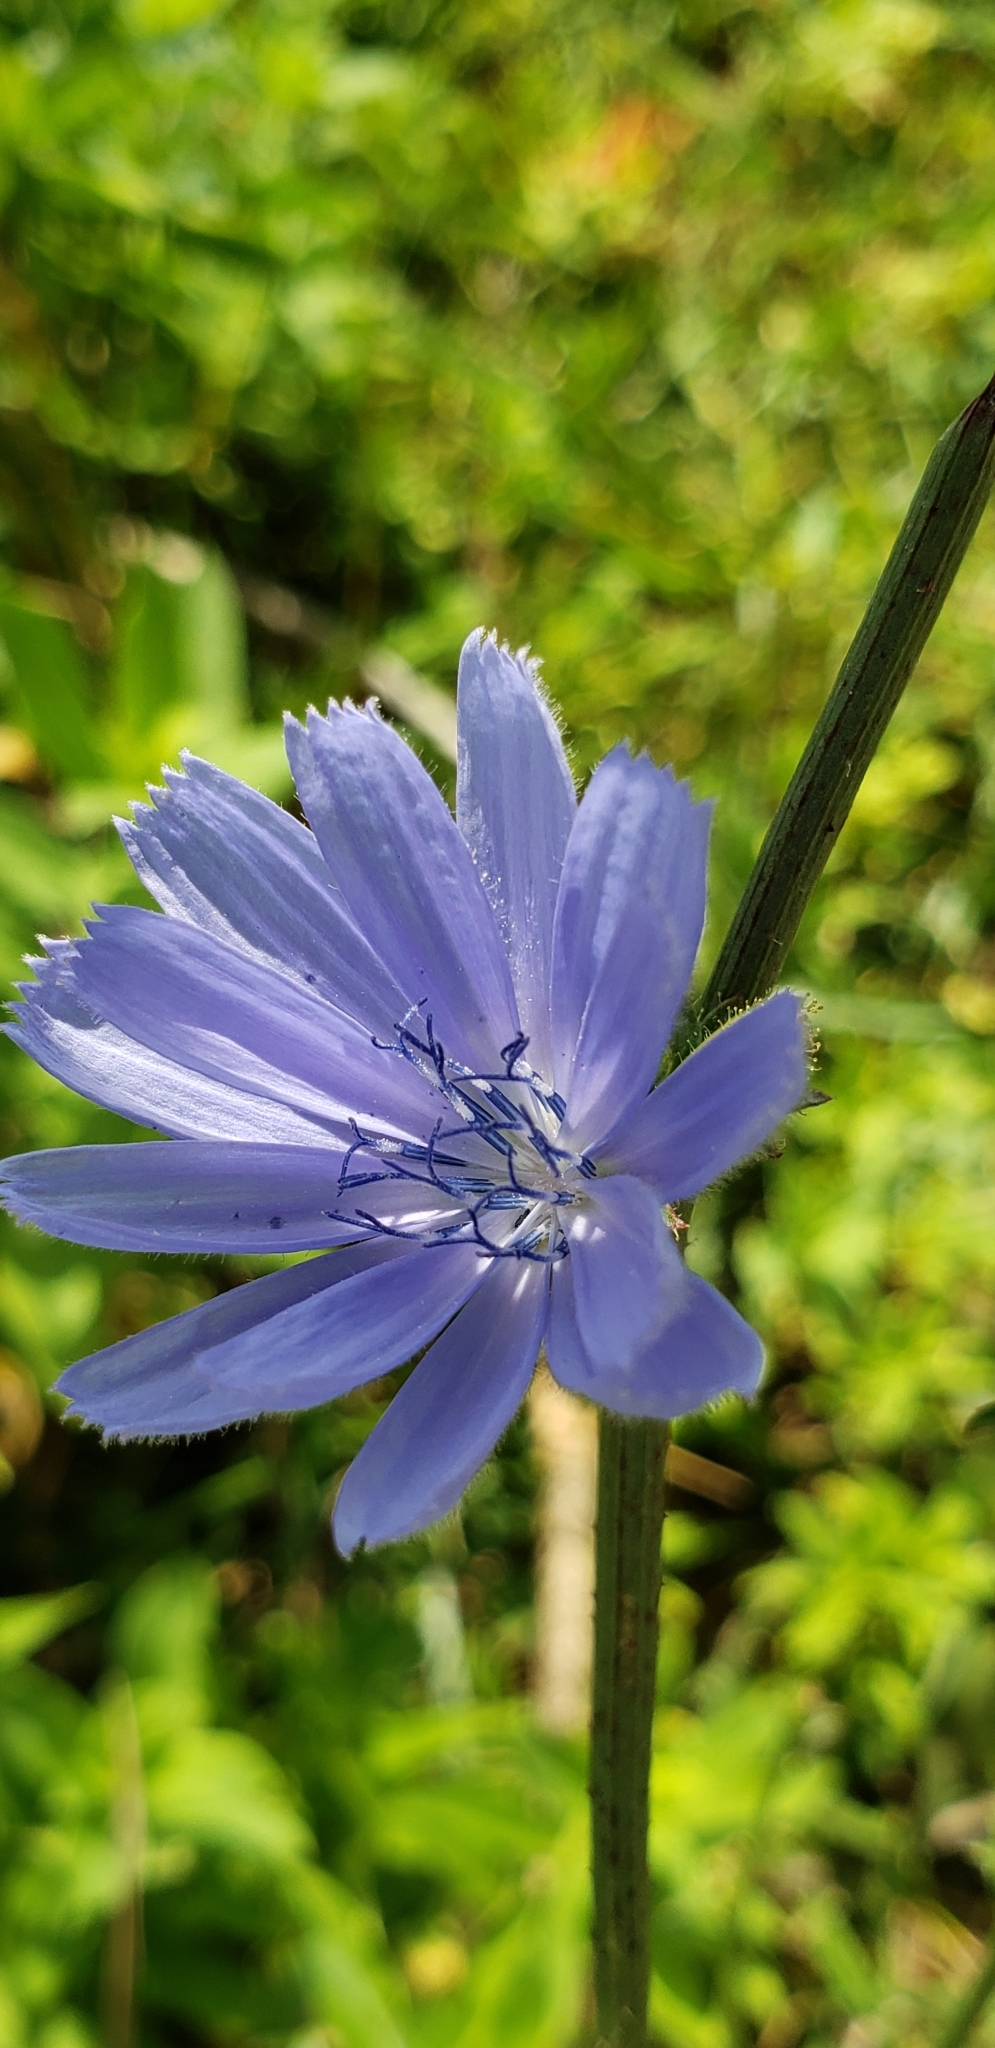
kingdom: Plantae
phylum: Tracheophyta
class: Magnoliopsida
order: Asterales
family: Asteraceae
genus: Cichorium
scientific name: Cichorium intybus
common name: Chicory
